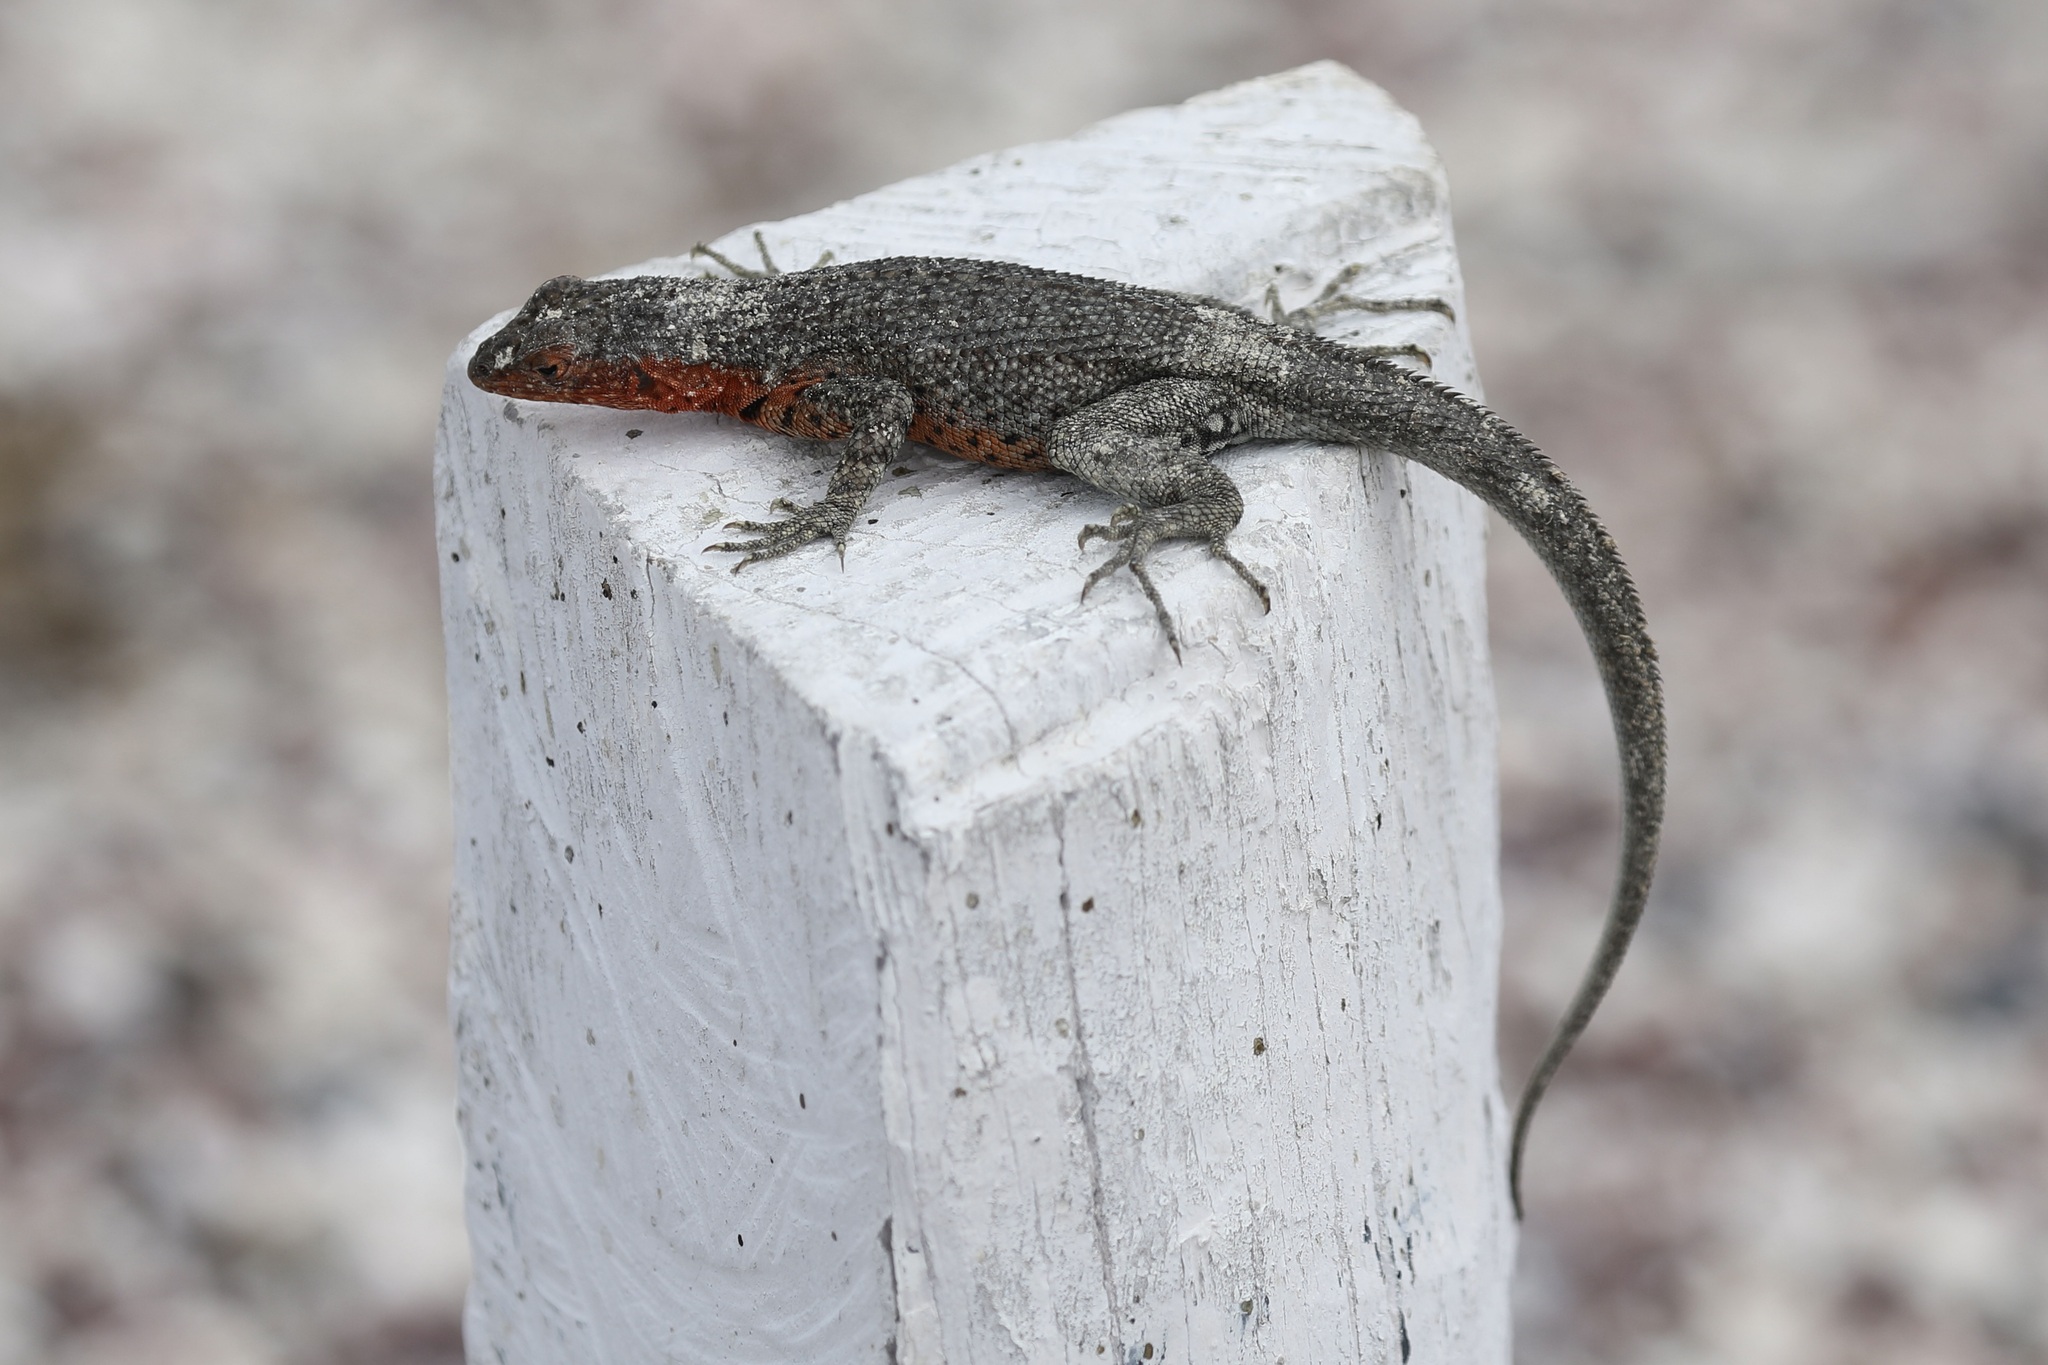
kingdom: Animalia
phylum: Chordata
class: Squamata
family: Tropiduridae
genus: Microlophus
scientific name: Microlophus albemarlensis
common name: Galapagos lava lizard
